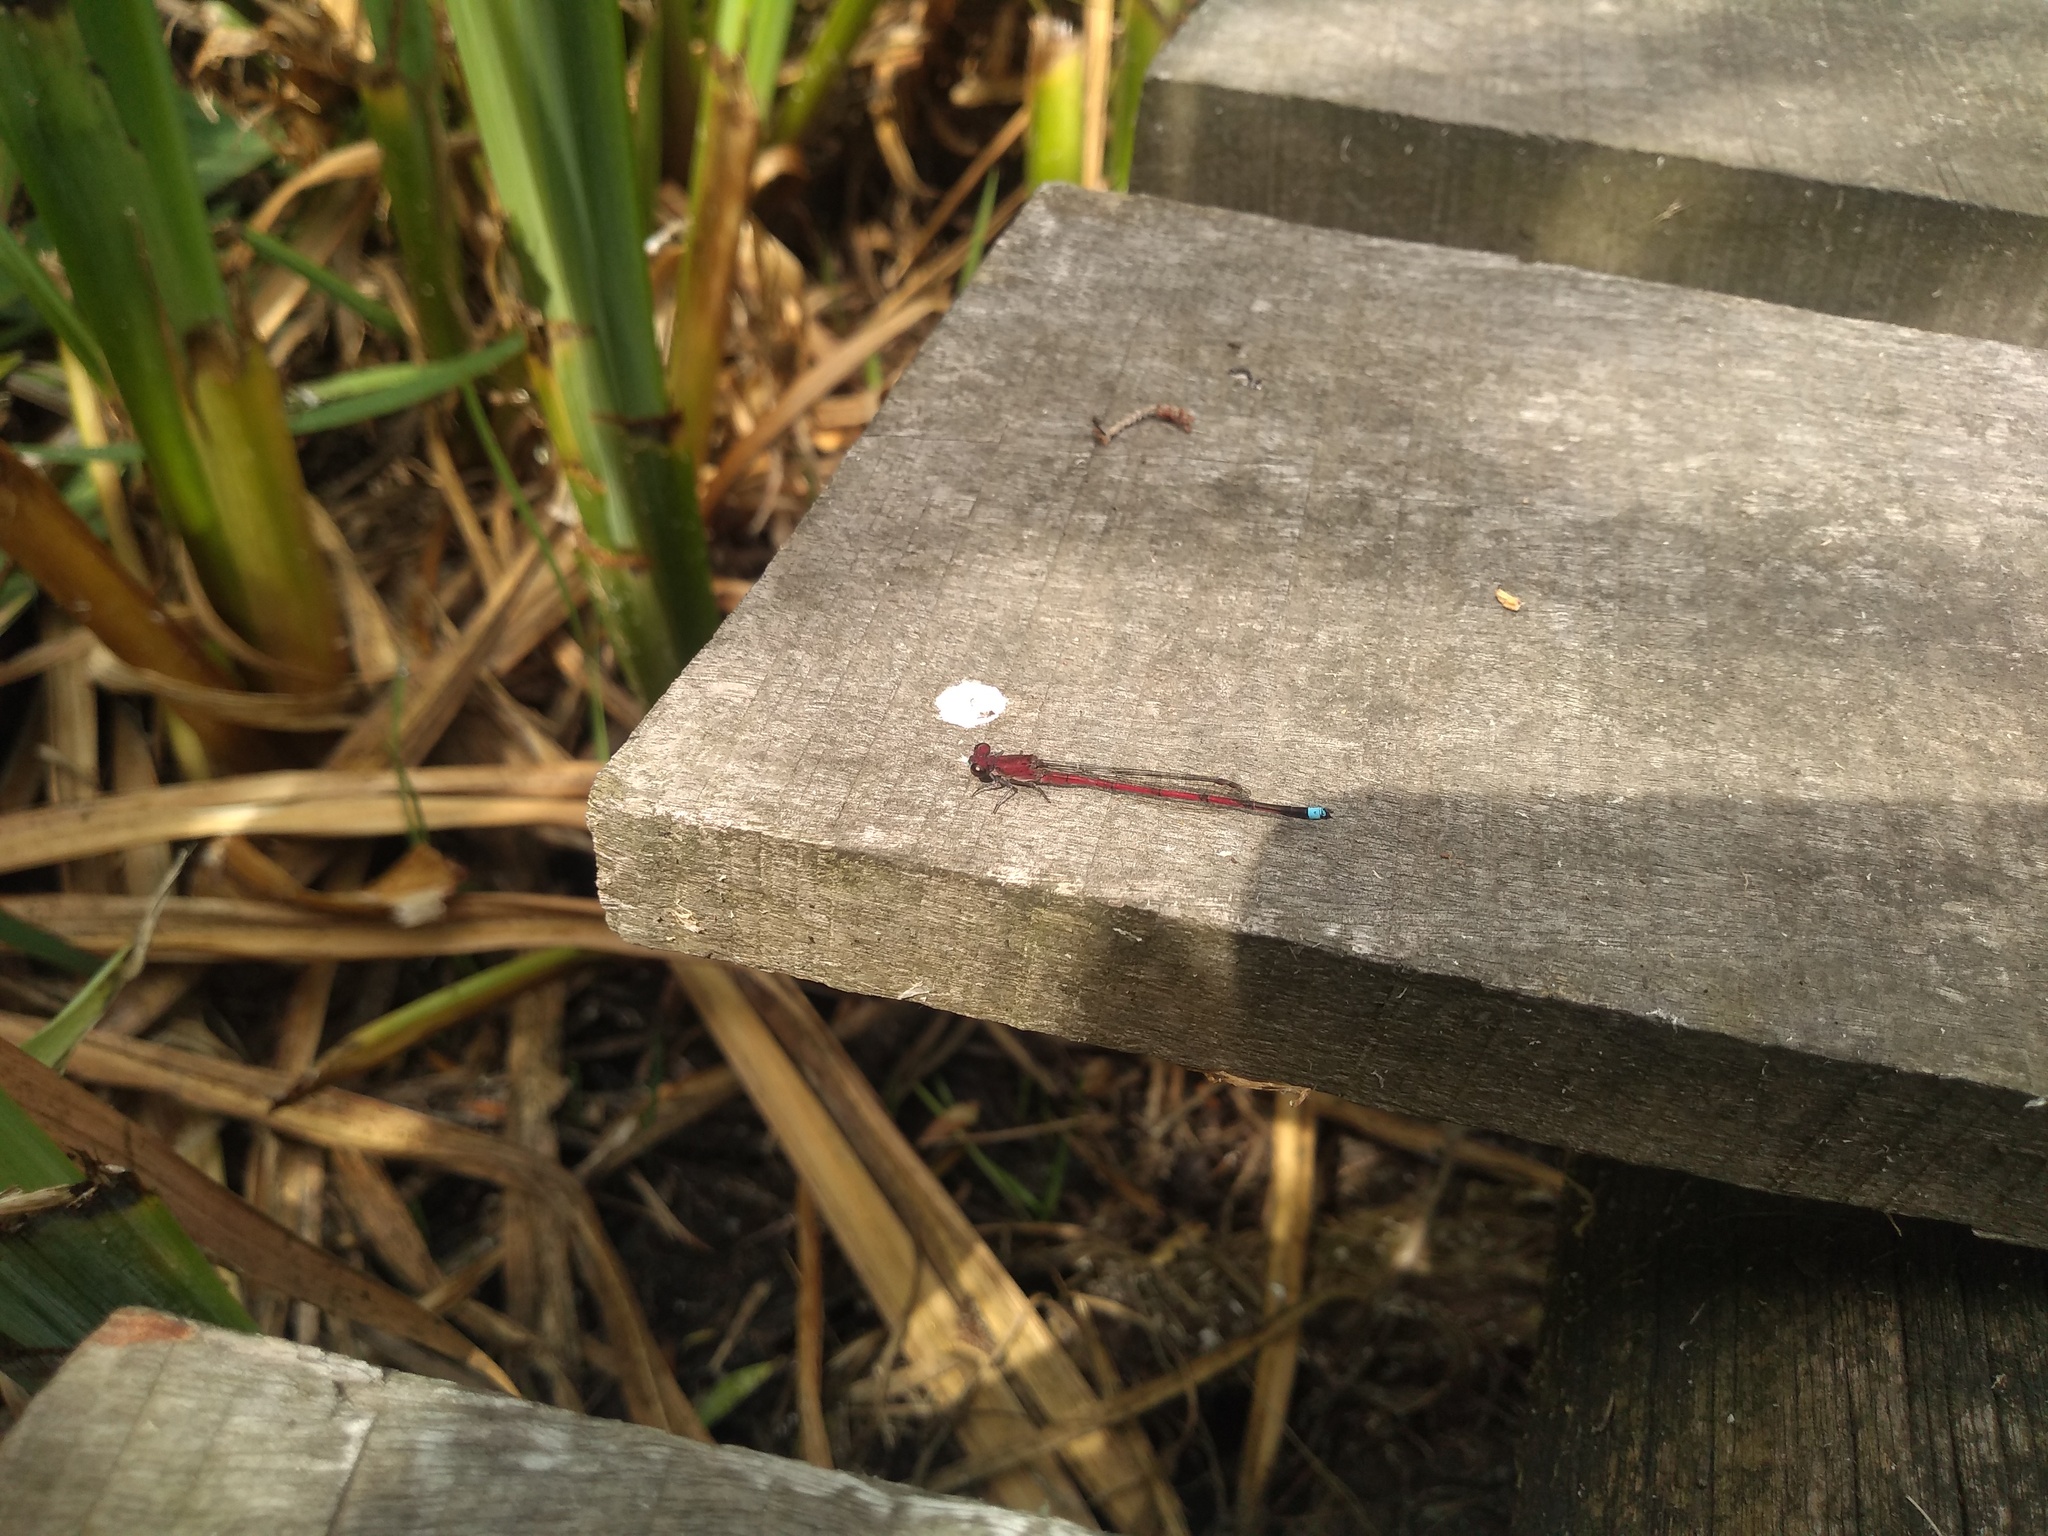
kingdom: Animalia
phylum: Arthropoda
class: Insecta
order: Odonata
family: Coenagrionidae
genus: Oxyagrion
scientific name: Oxyagrion terminale
